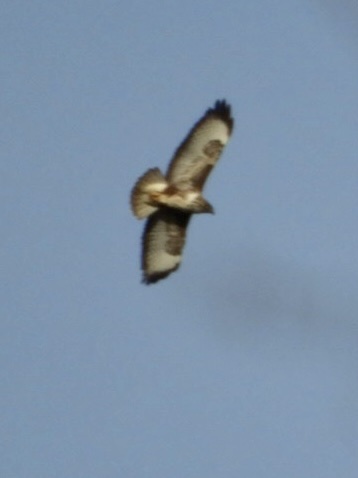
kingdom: Animalia
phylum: Chordata
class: Aves
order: Accipitriformes
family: Accipitridae
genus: Buteo
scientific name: Buteo buteo
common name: Common buzzard
